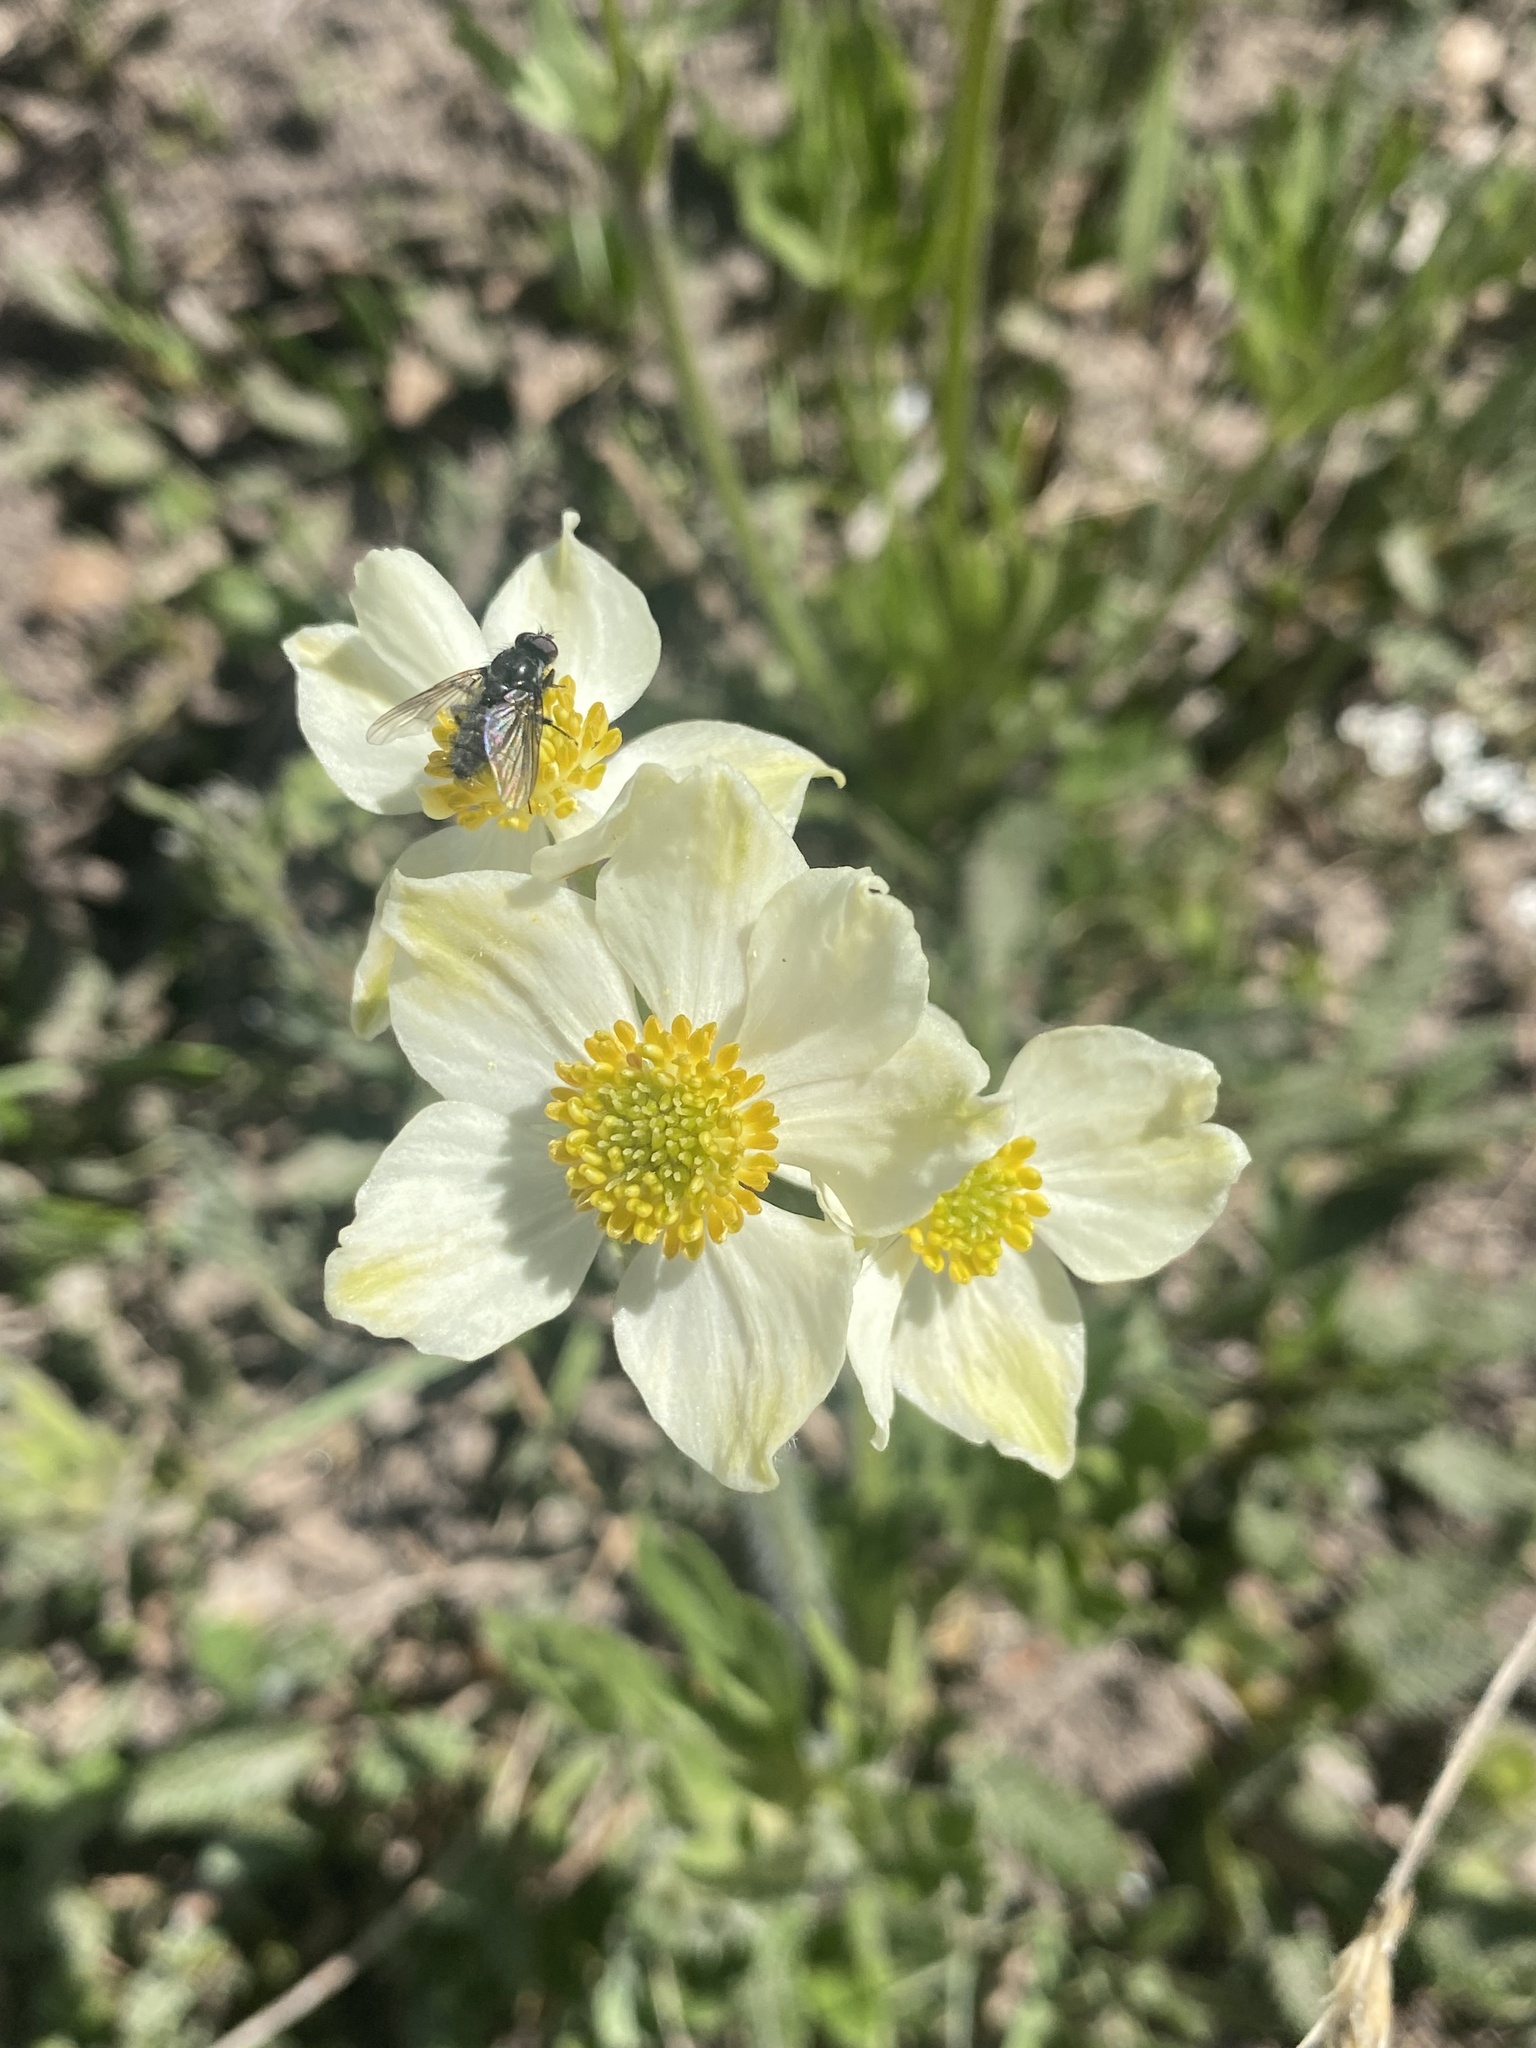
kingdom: Plantae
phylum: Tracheophyta
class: Magnoliopsida
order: Ranunculales
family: Ranunculaceae
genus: Anemonastrum
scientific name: Anemonastrum narcissiflorum
